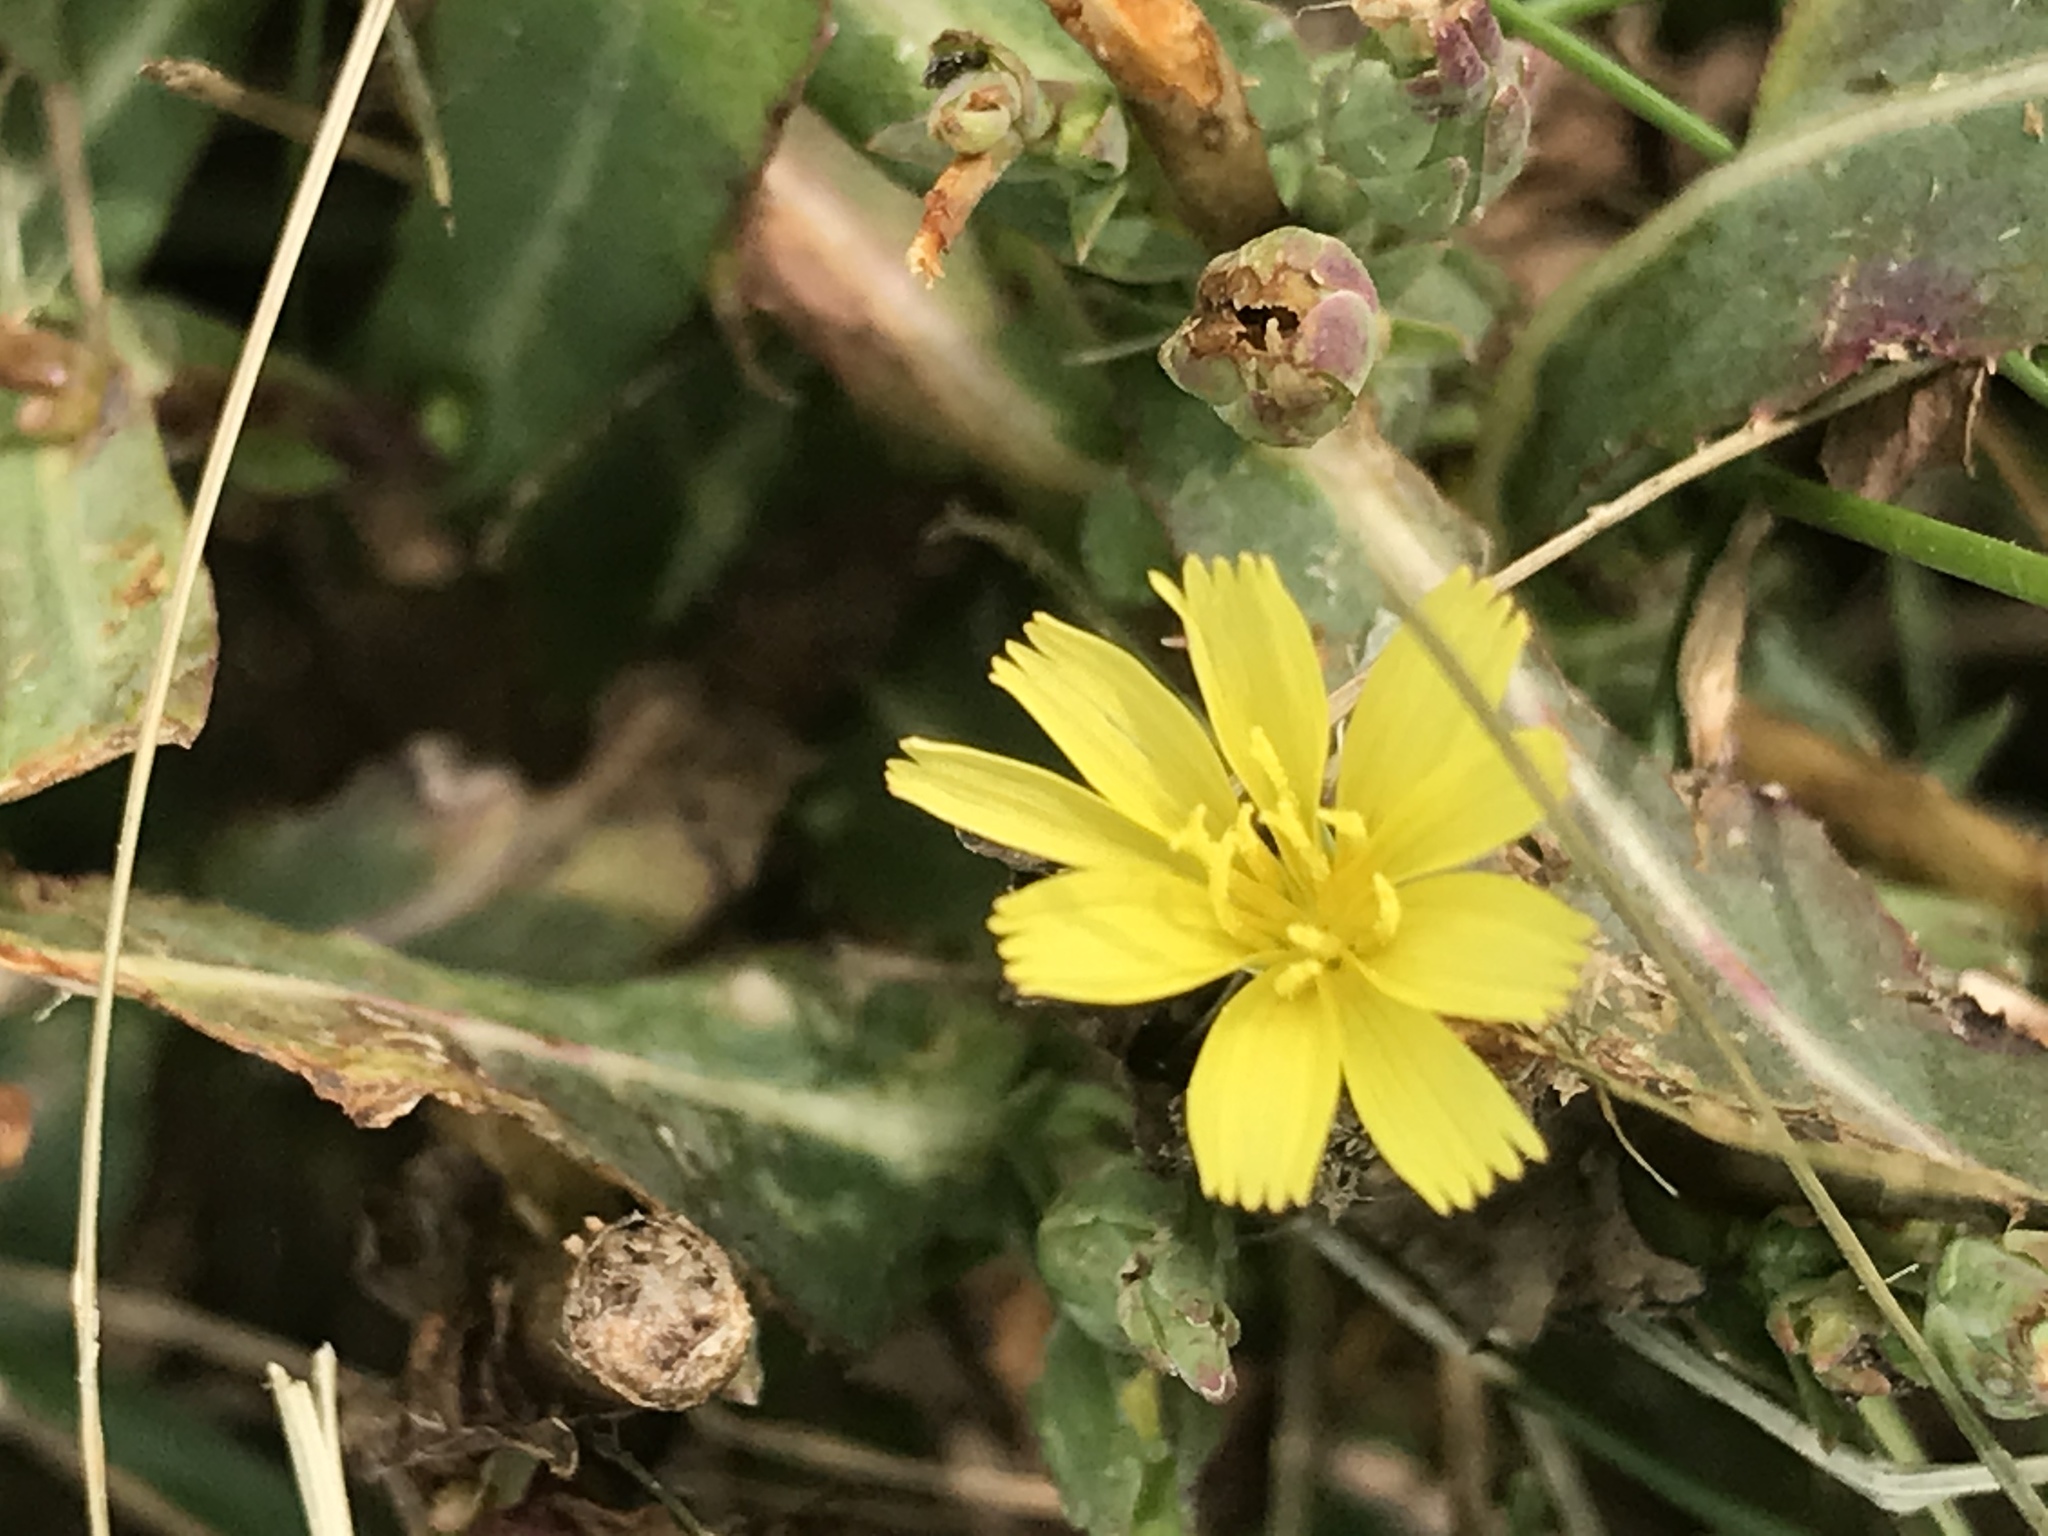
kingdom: Plantae
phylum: Tracheophyta
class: Magnoliopsida
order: Asterales
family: Asteraceae
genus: Lactuca
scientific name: Lactuca serriola
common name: Prickly lettuce
